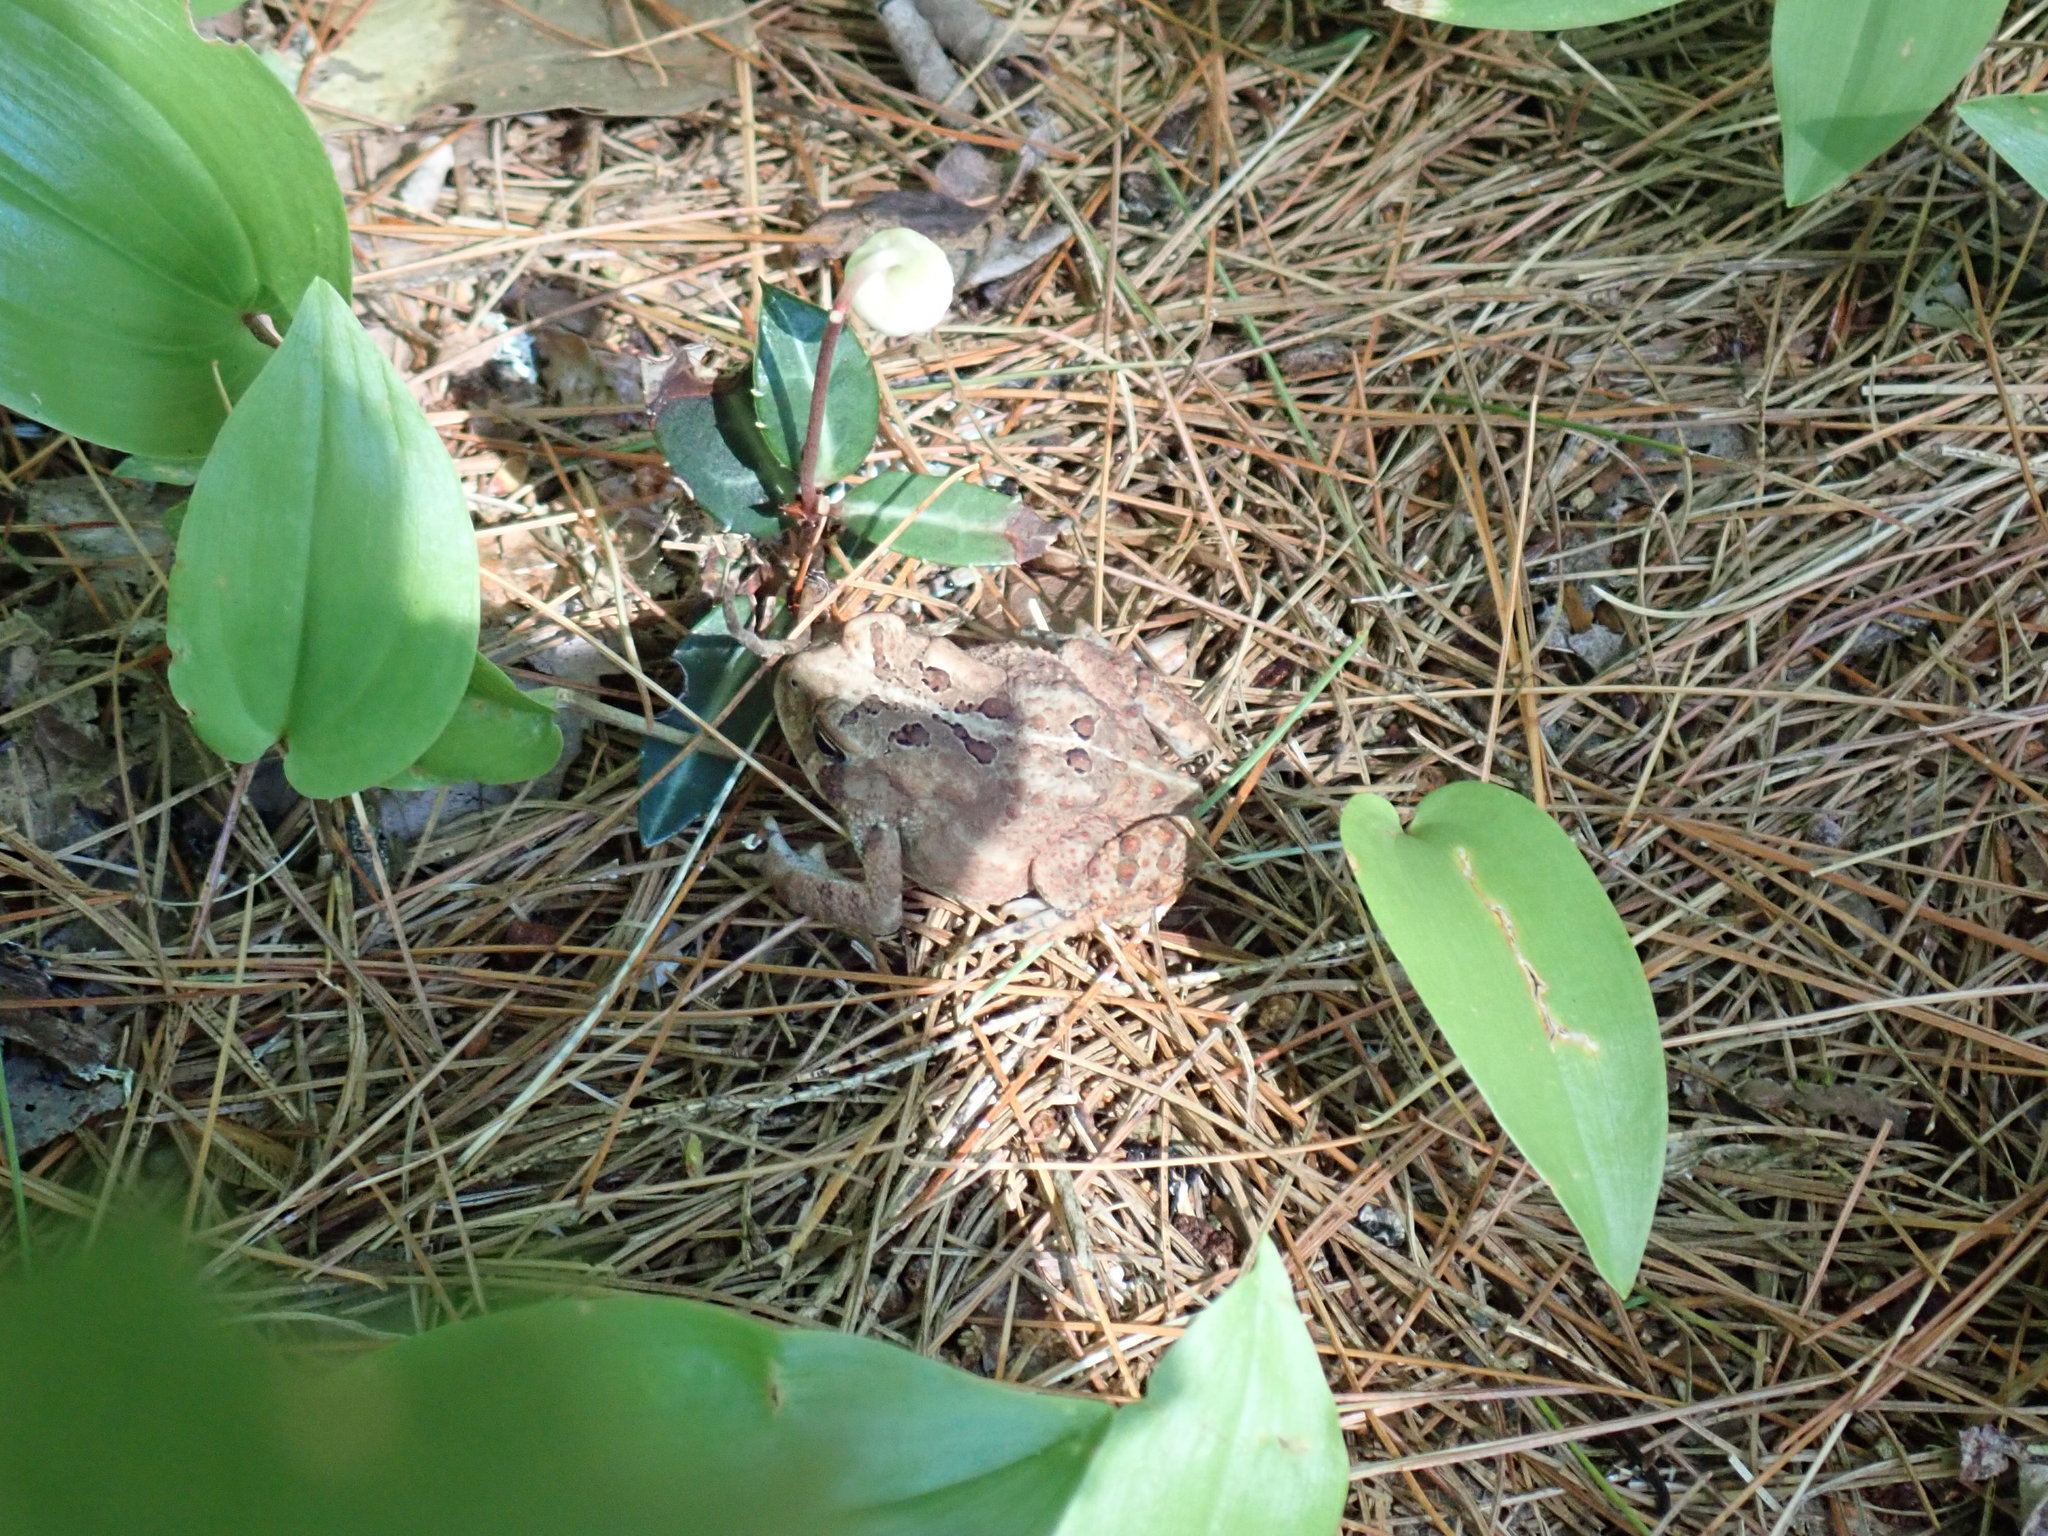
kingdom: Animalia
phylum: Chordata
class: Amphibia
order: Anura
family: Bufonidae
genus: Anaxyrus
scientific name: Anaxyrus americanus
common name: American toad
